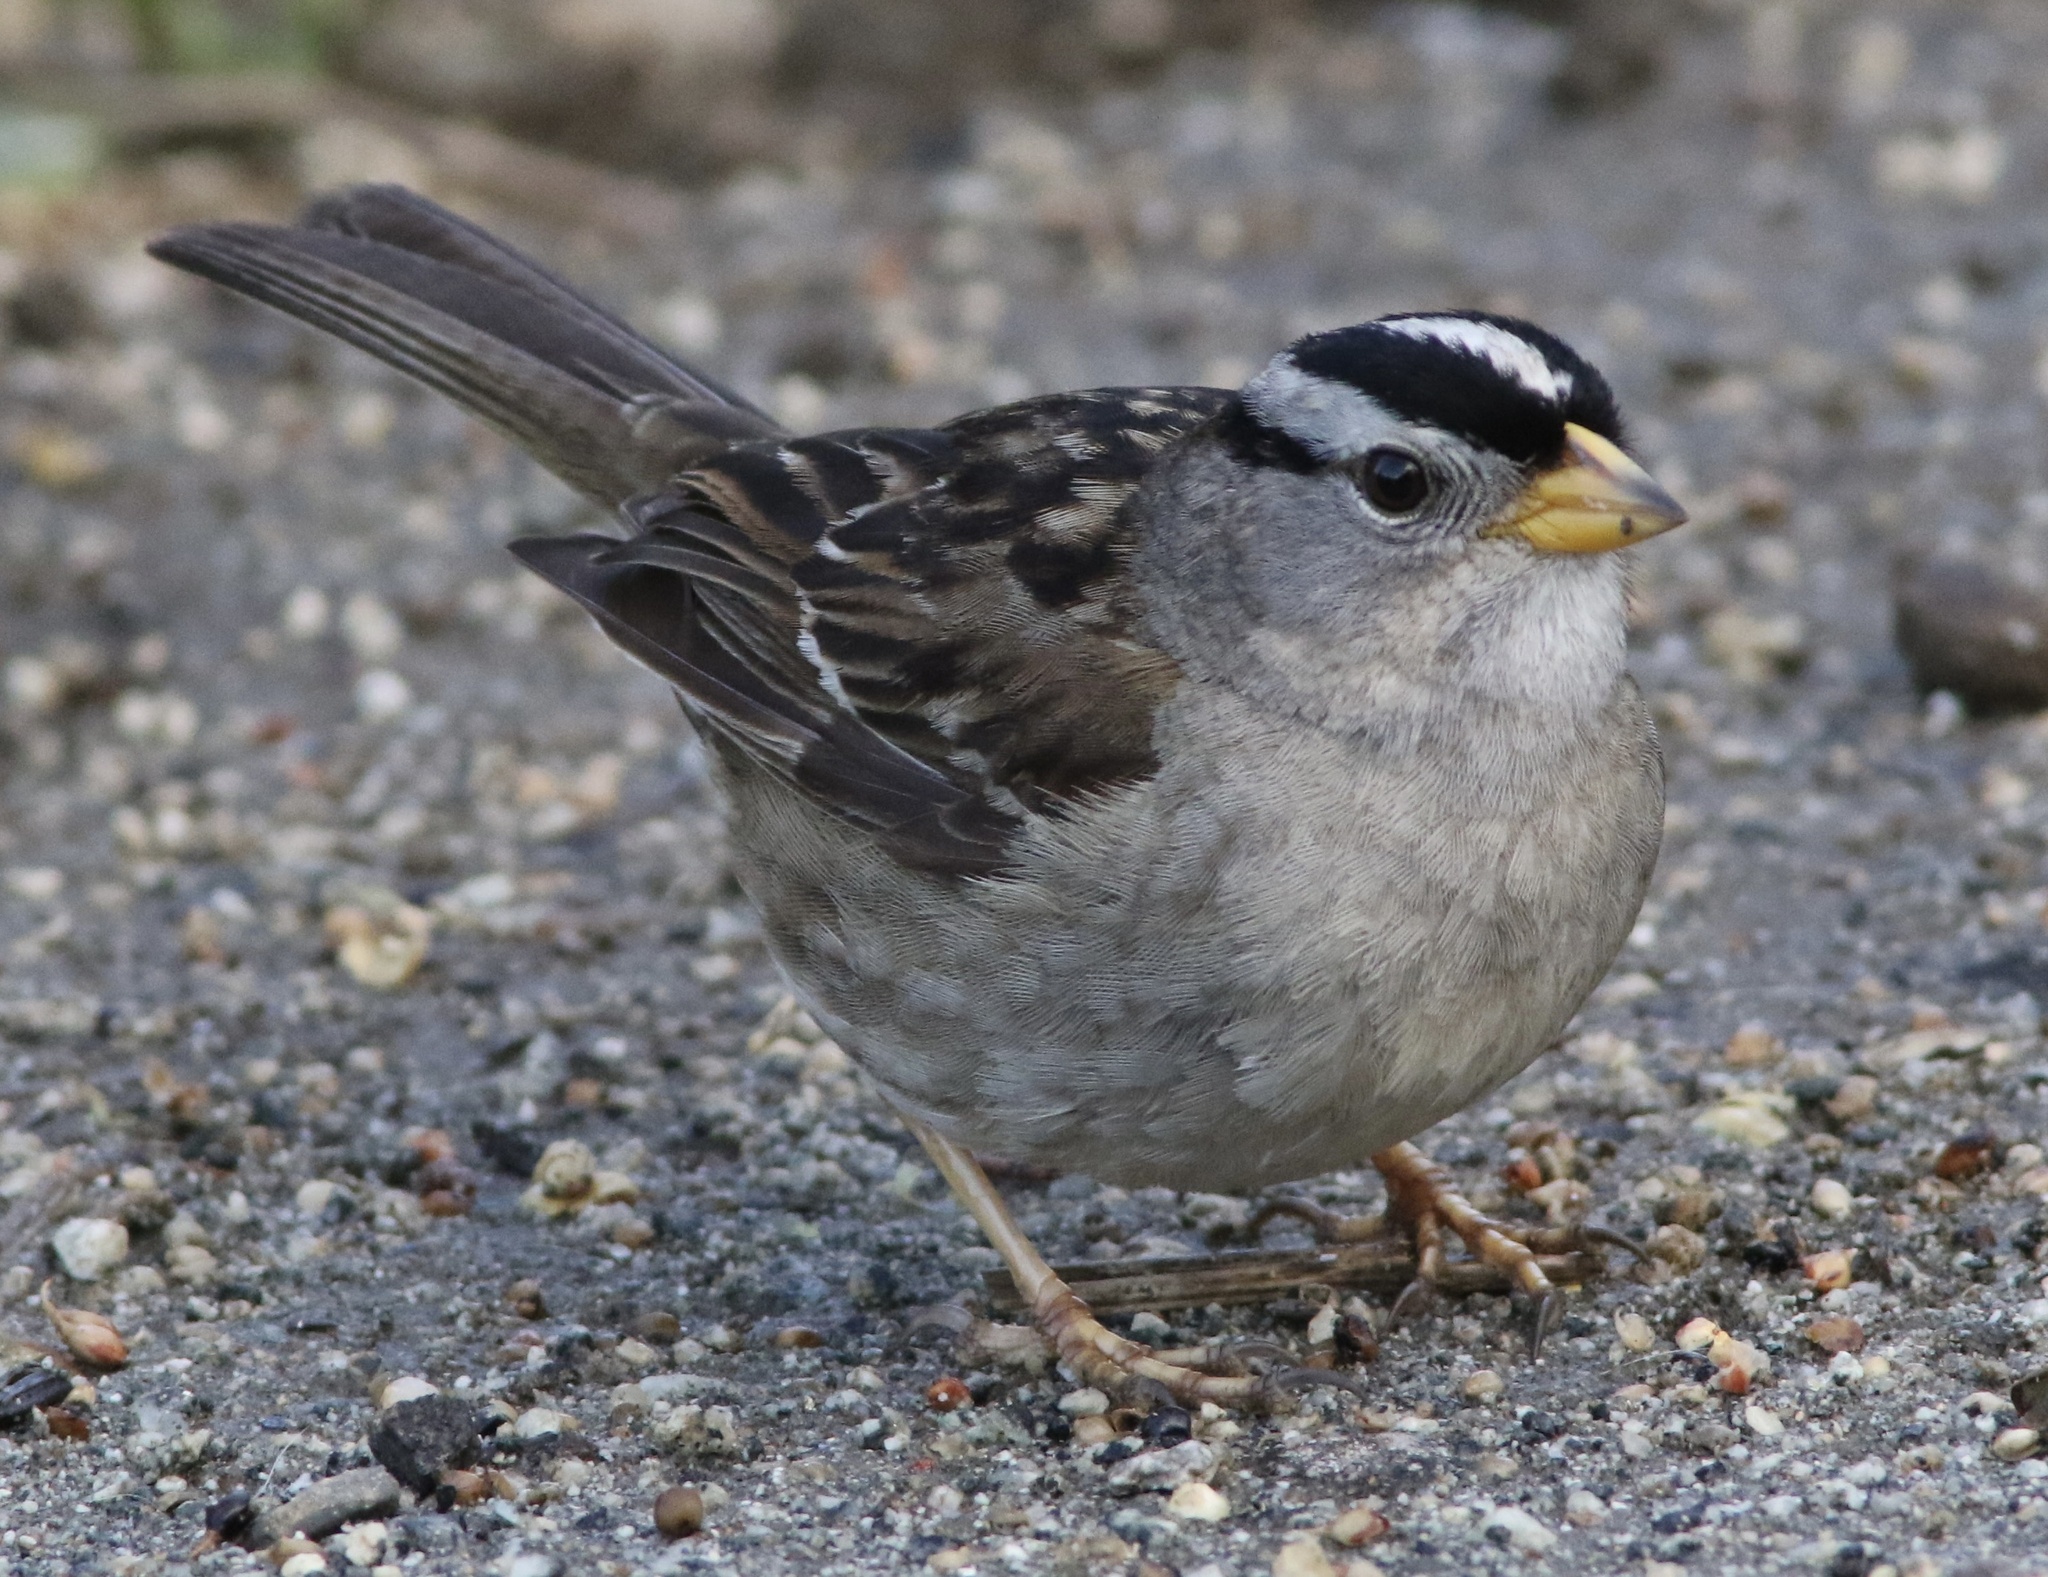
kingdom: Animalia
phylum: Chordata
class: Aves
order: Passeriformes
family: Passerellidae
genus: Zonotrichia
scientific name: Zonotrichia leucophrys
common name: White-crowned sparrow
